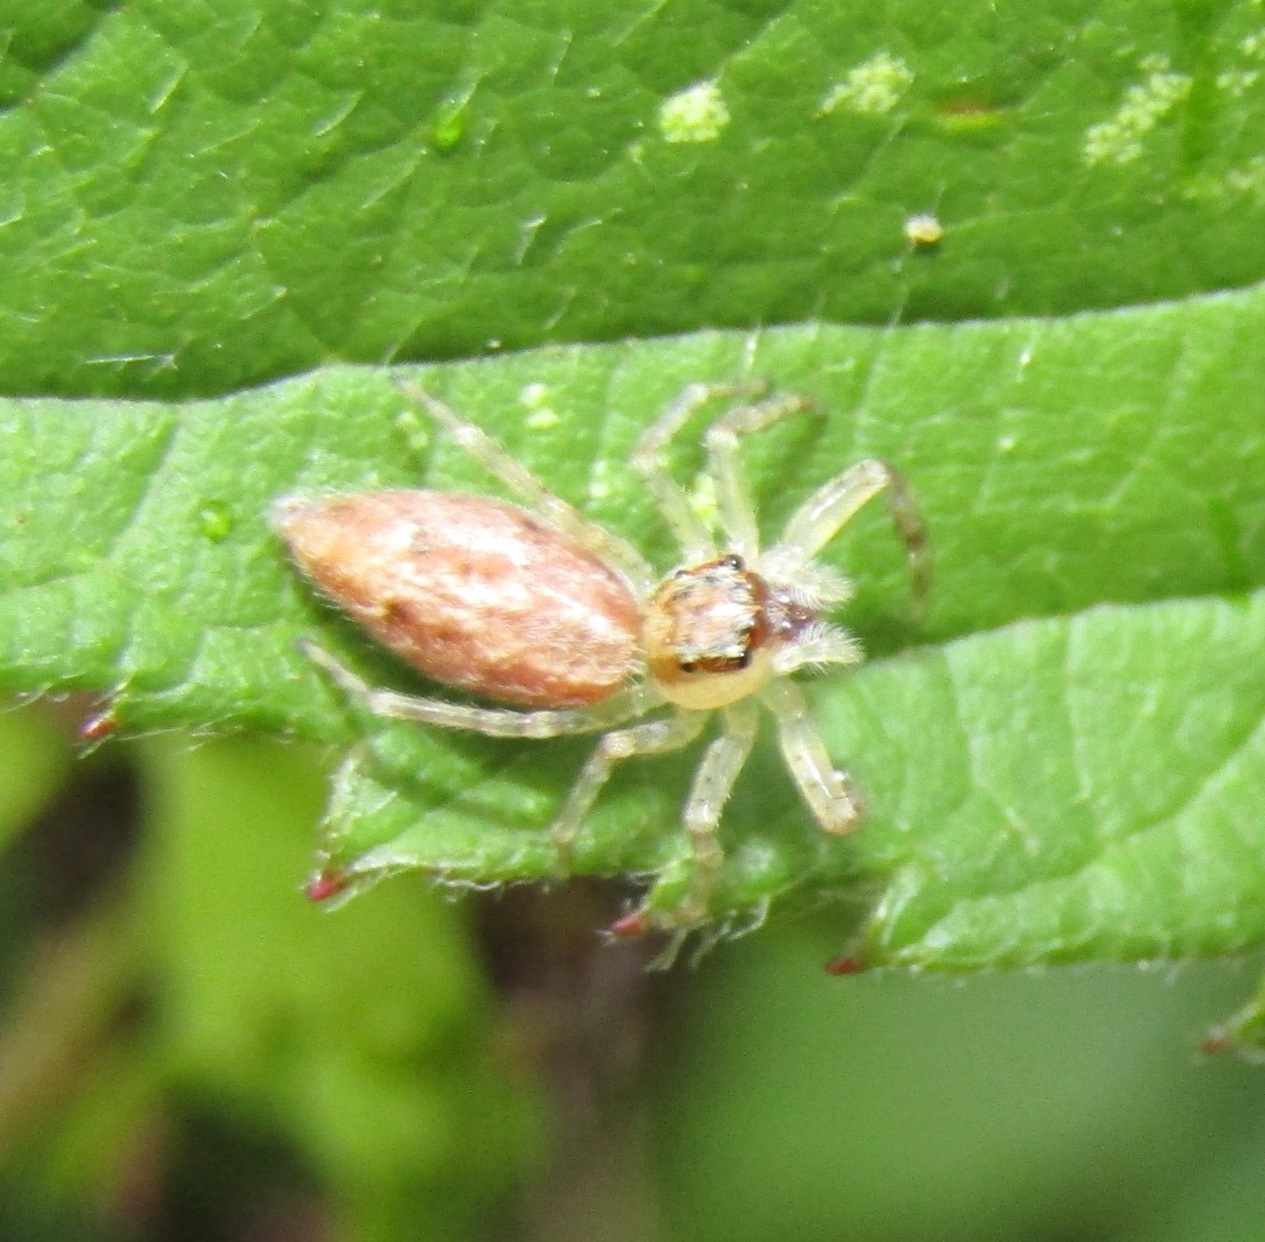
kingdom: Animalia
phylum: Arthropoda
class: Arachnida
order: Araneae
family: Salticidae
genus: Helpis
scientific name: Helpis minitabunda
